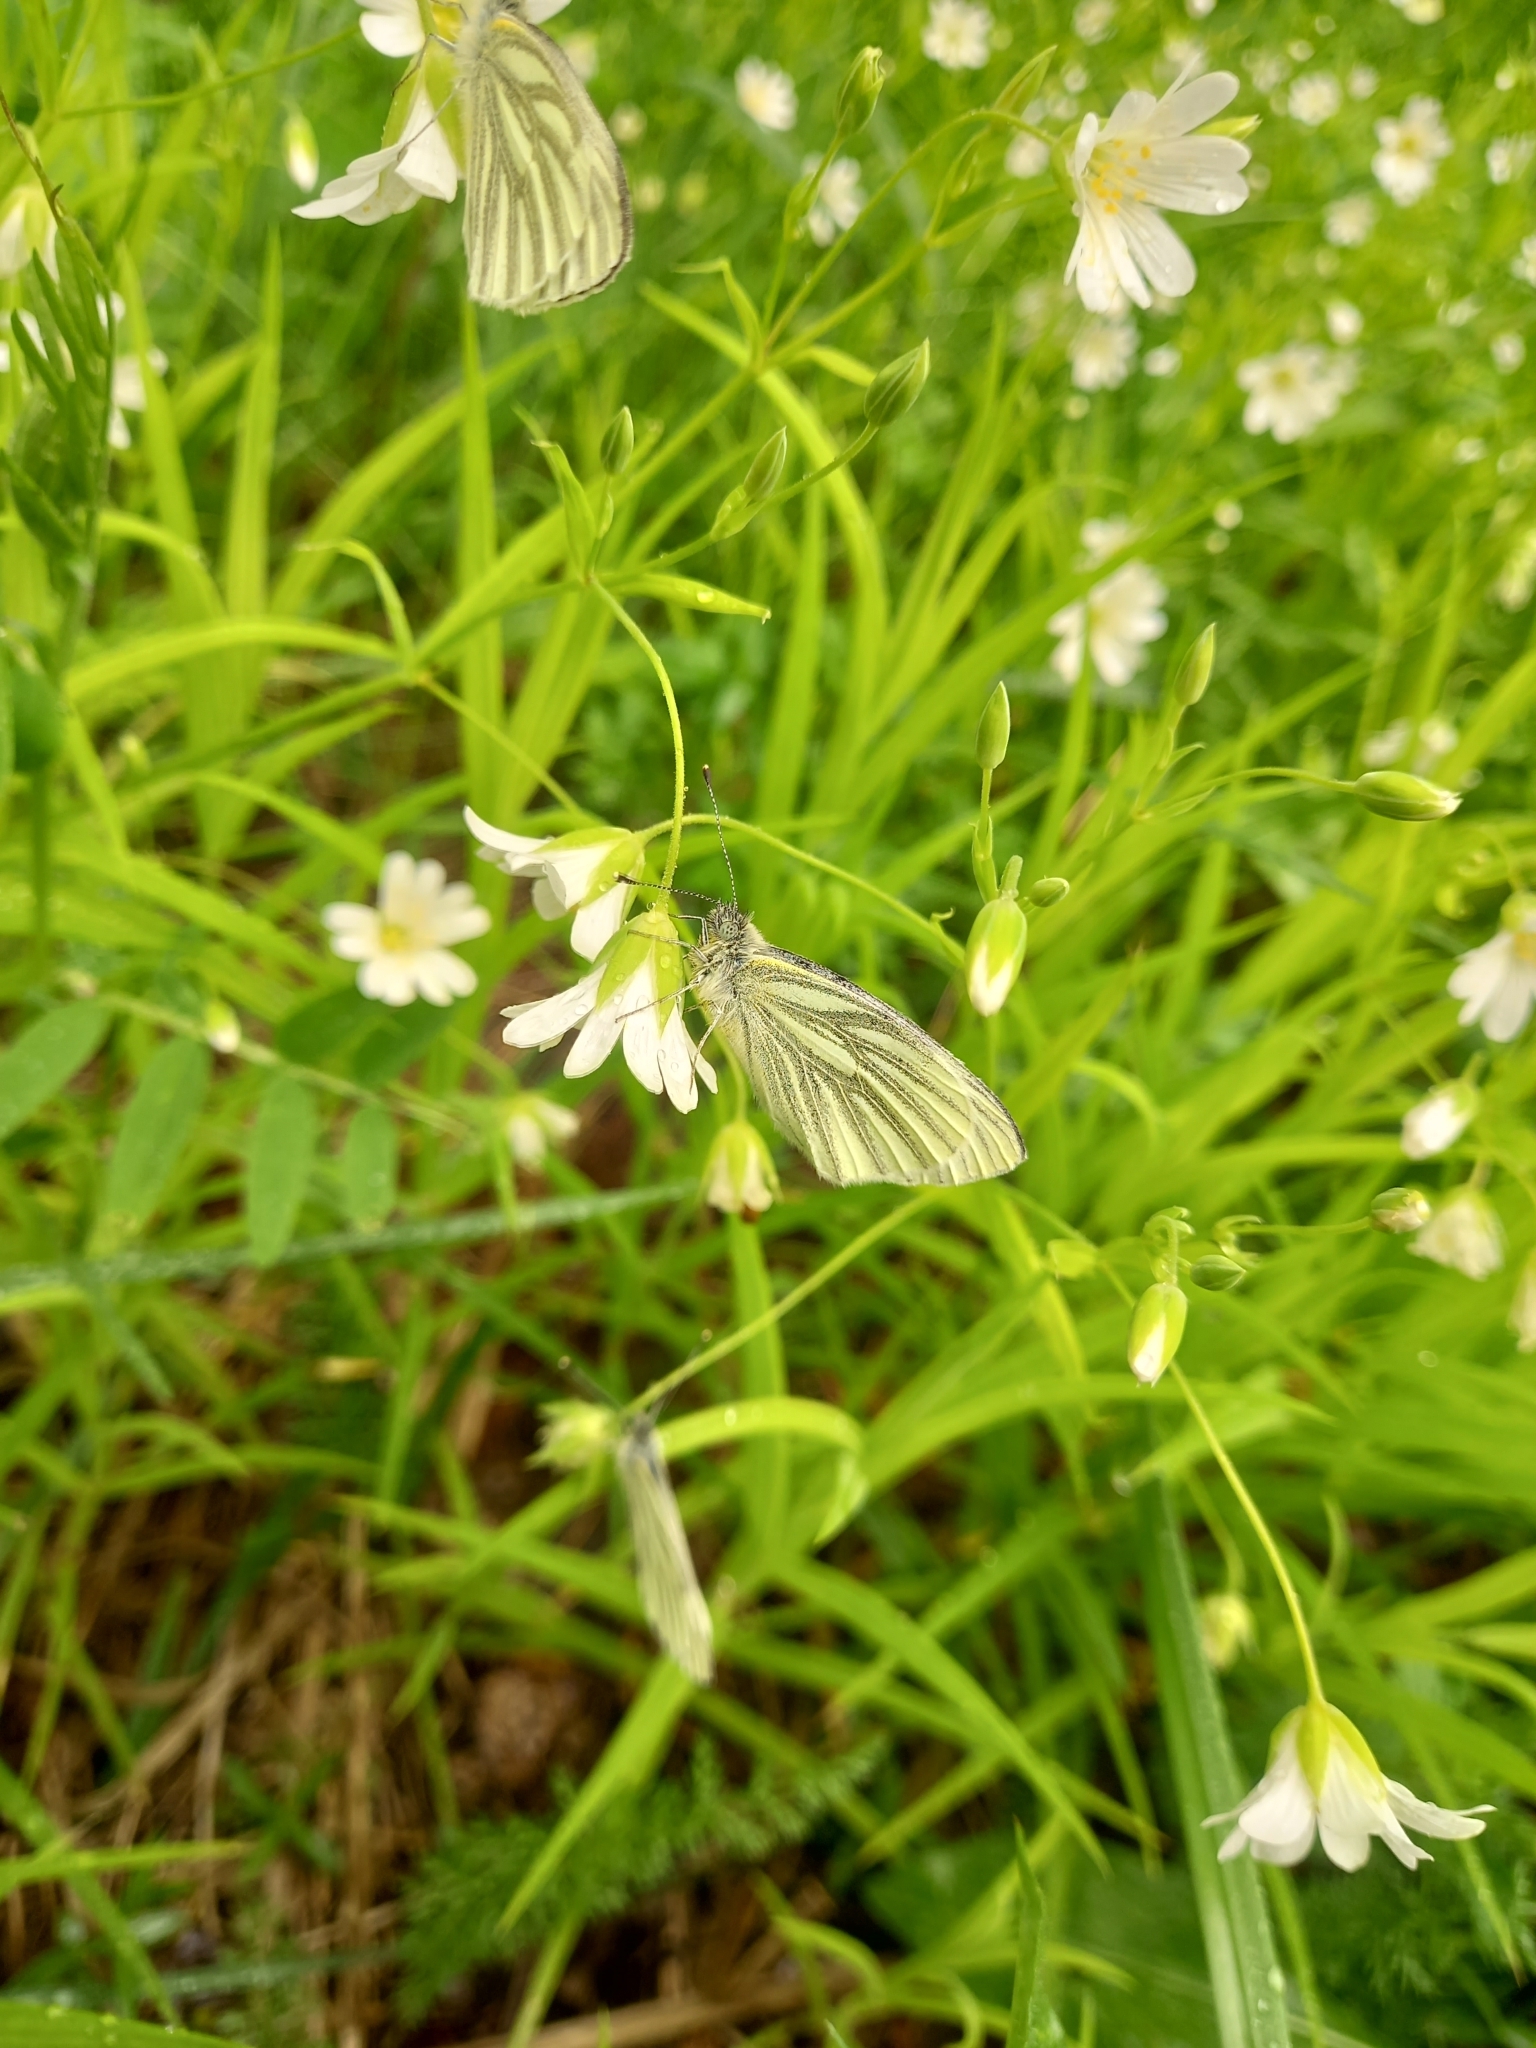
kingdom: Animalia
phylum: Arthropoda
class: Insecta
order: Lepidoptera
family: Pieridae
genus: Pieris
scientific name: Pieris napi
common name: Green-veined white
